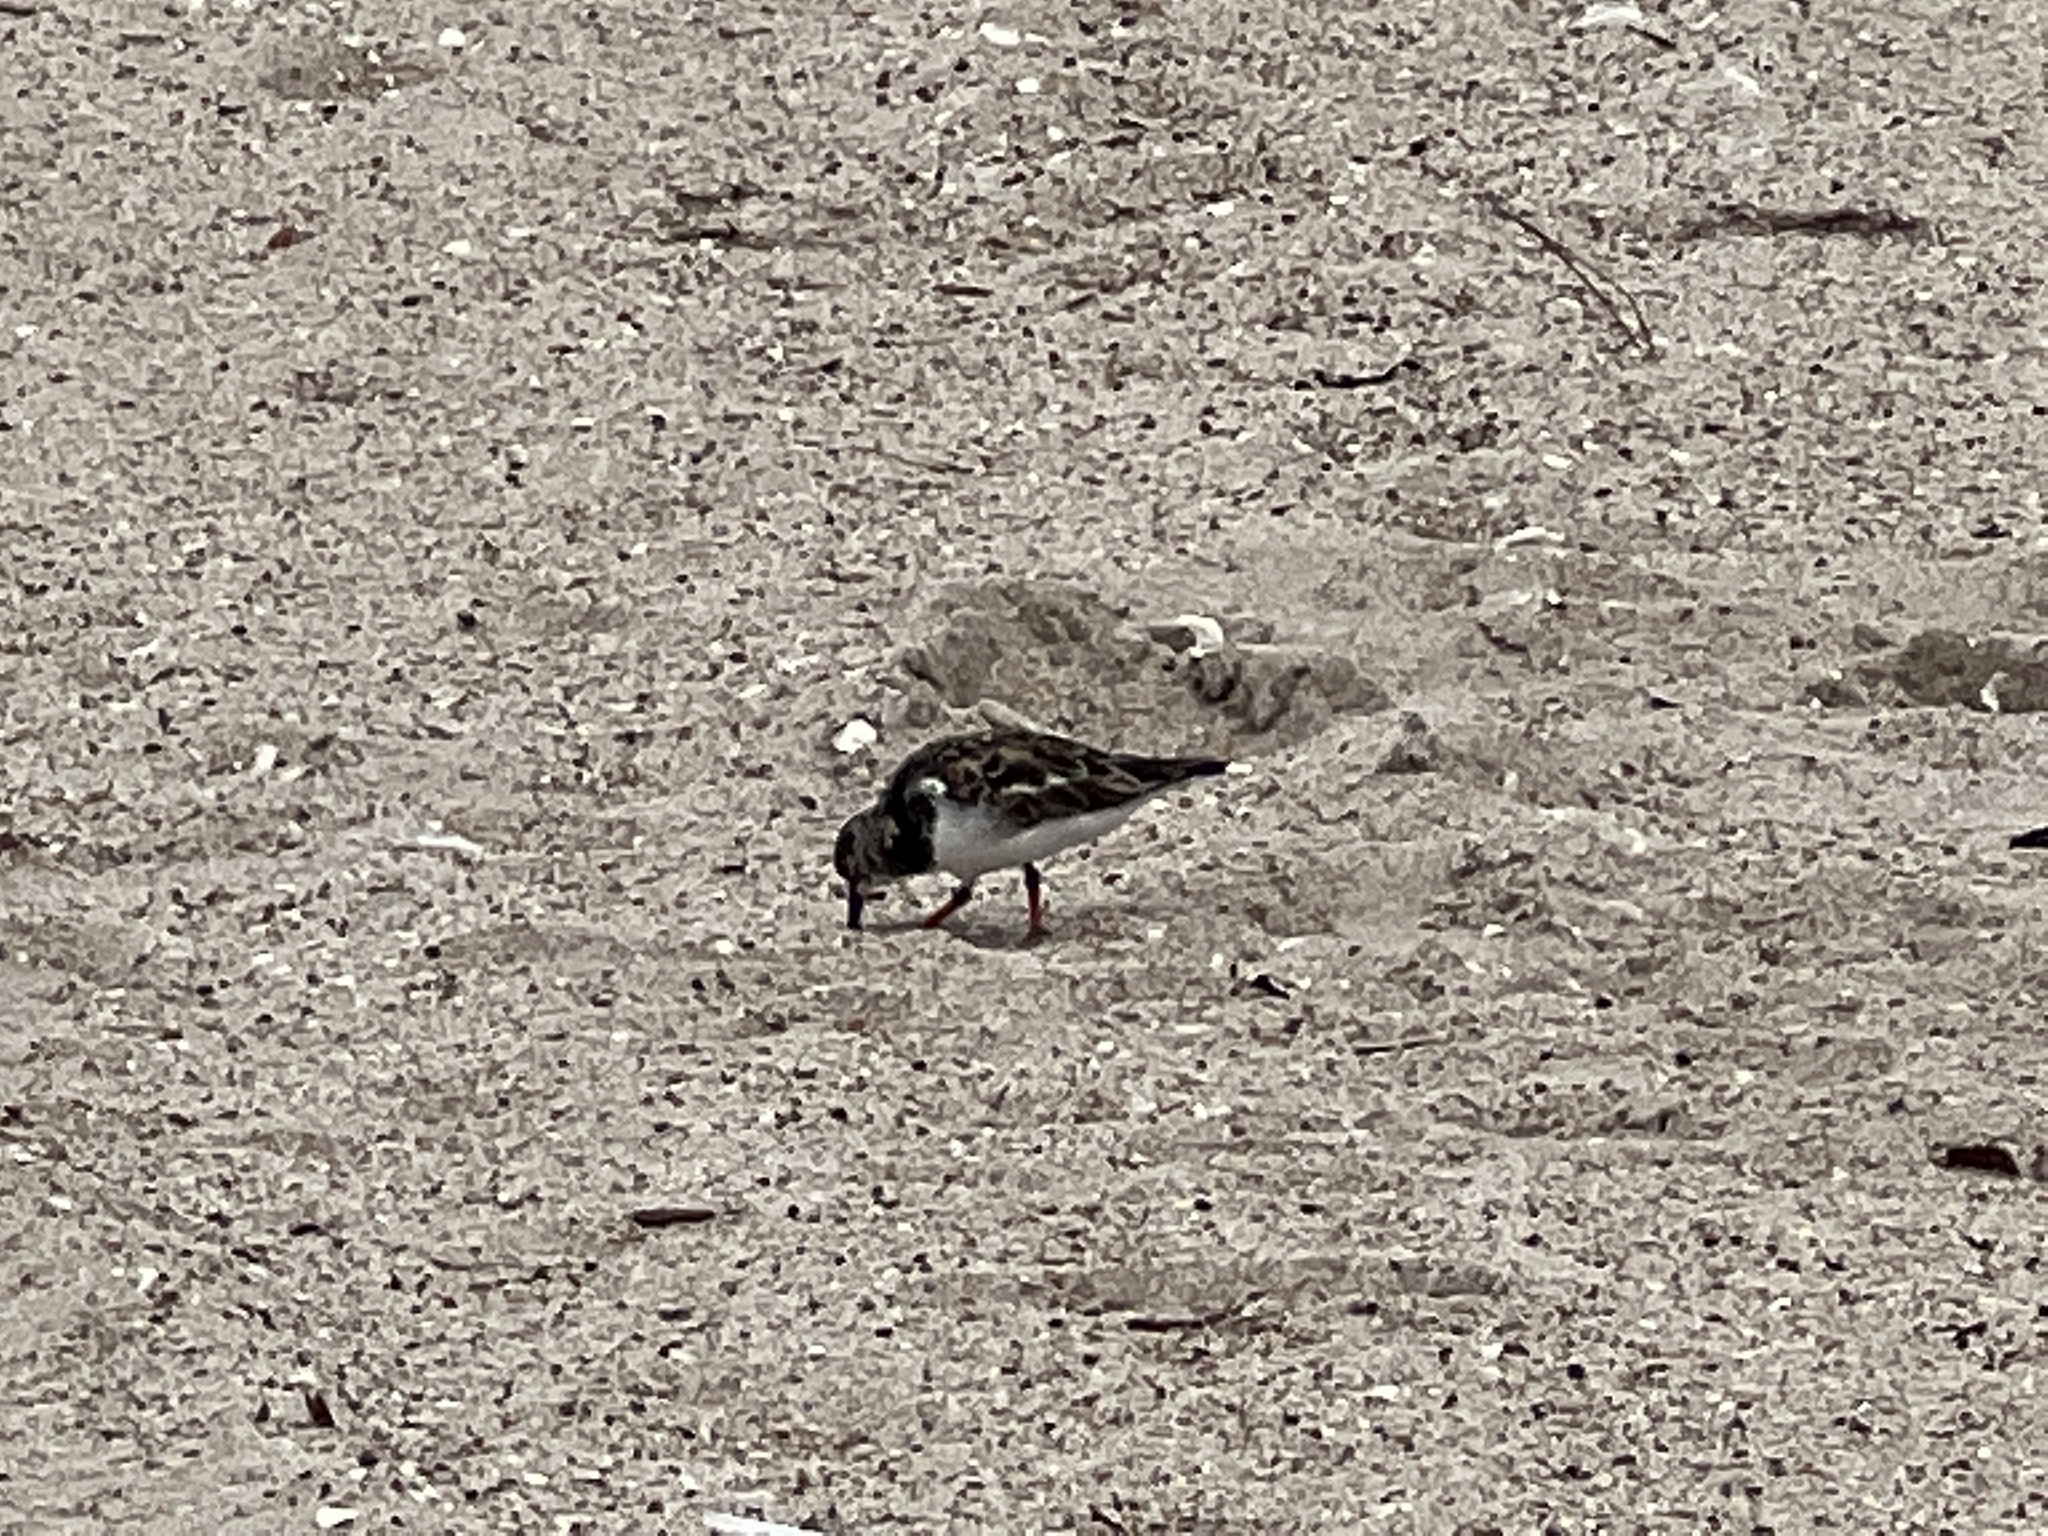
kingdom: Animalia
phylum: Chordata
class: Aves
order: Charadriiformes
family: Scolopacidae
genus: Arenaria
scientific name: Arenaria interpres
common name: Ruddy turnstone
